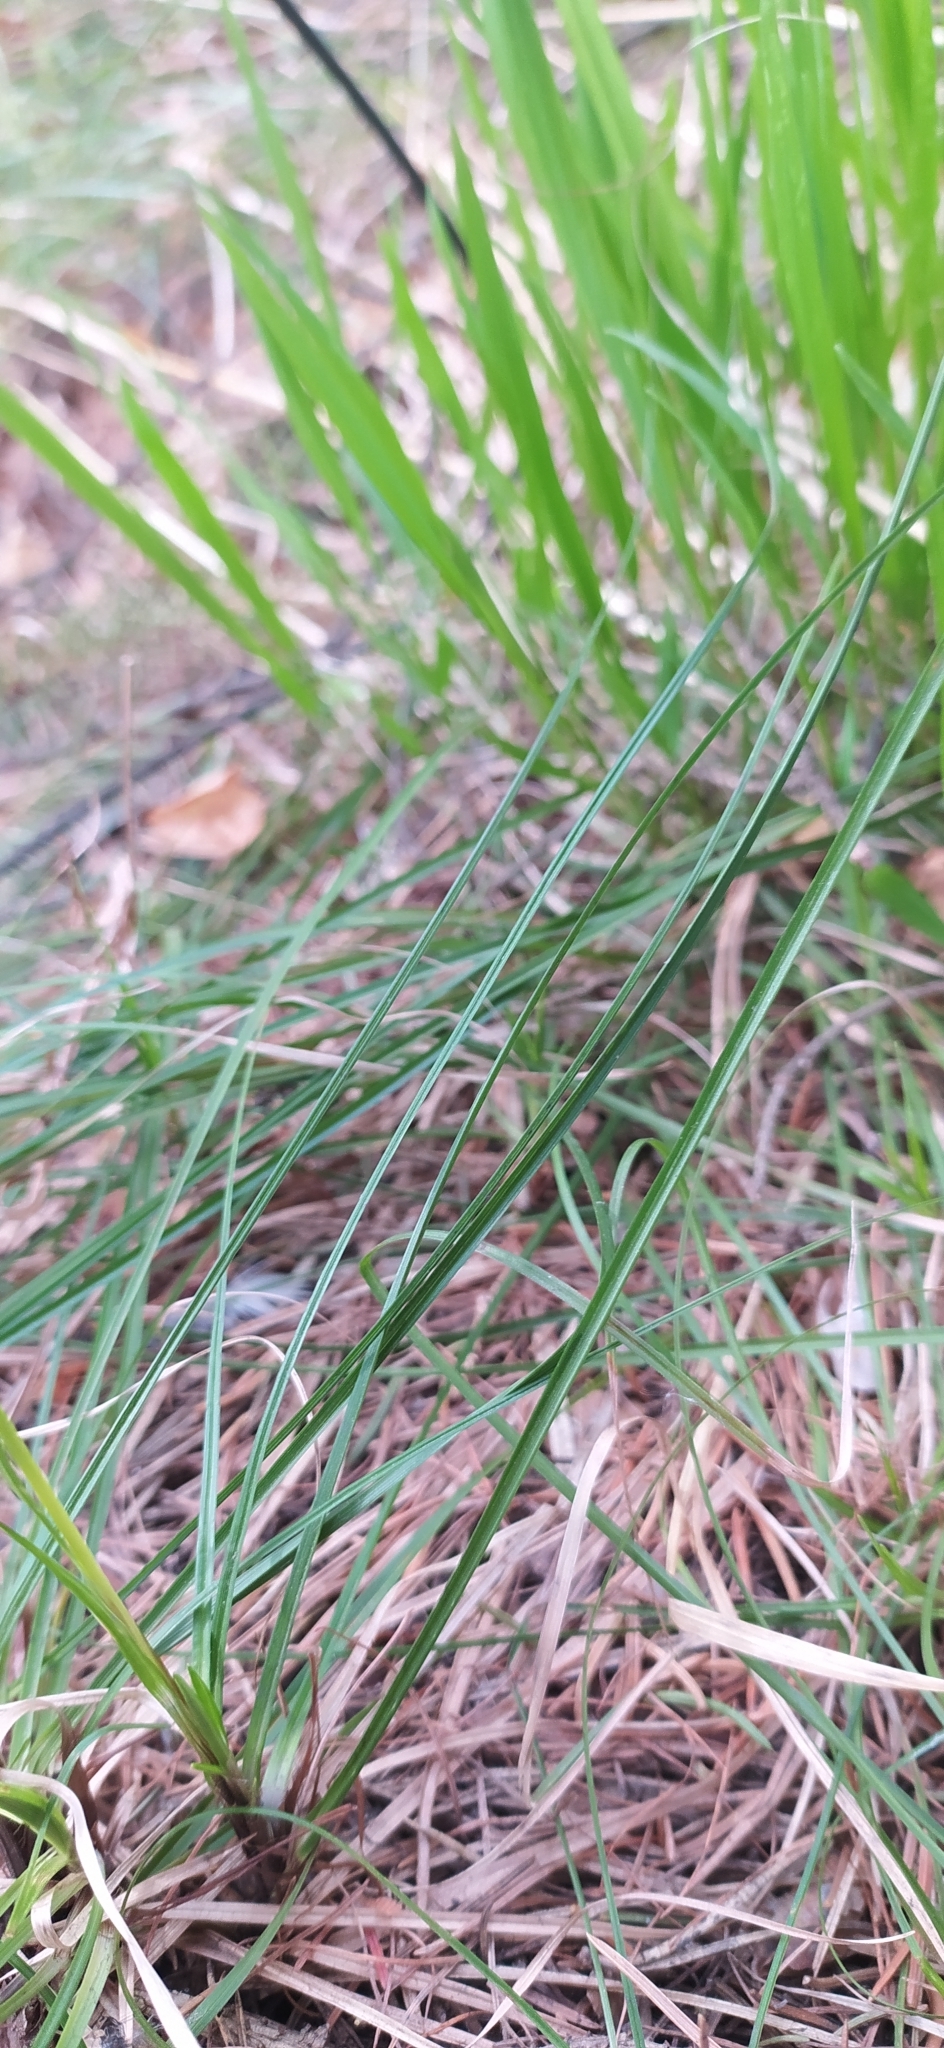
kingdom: Plantae
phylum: Tracheophyta
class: Liliopsida
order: Poales
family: Cyperaceae
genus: Carex
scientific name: Carex digitata
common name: Fingered sedge
